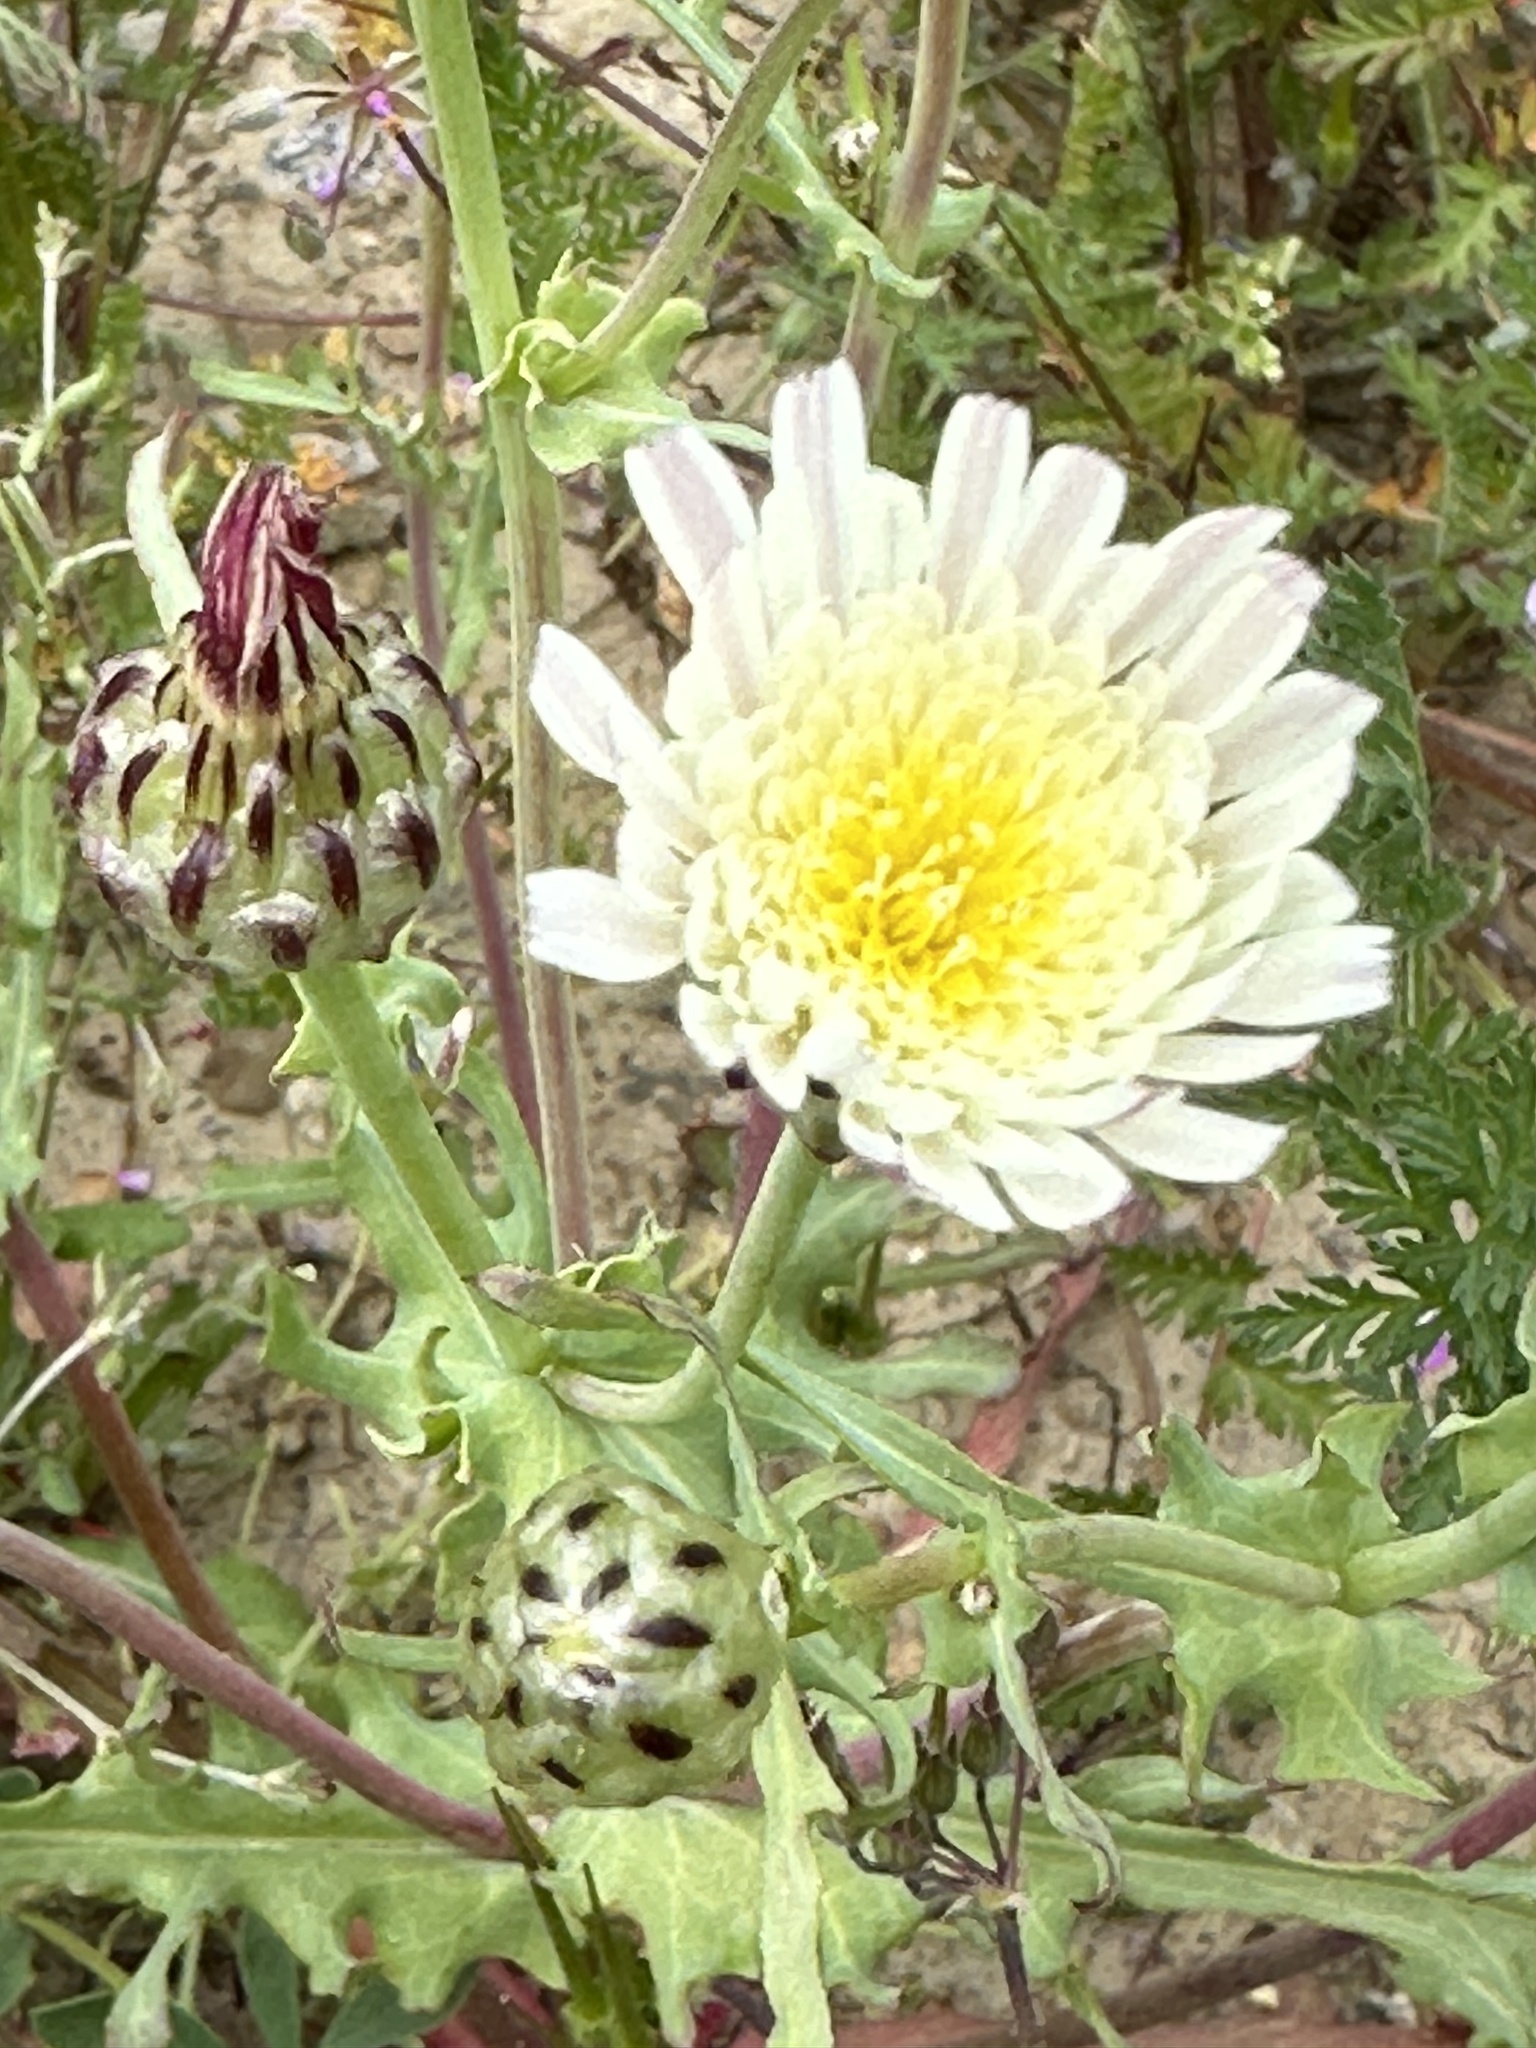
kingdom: Plantae
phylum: Tracheophyta
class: Magnoliopsida
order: Asterales
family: Asteraceae
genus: Malacothrix
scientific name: Malacothrix coulteri
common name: Snake's-head
